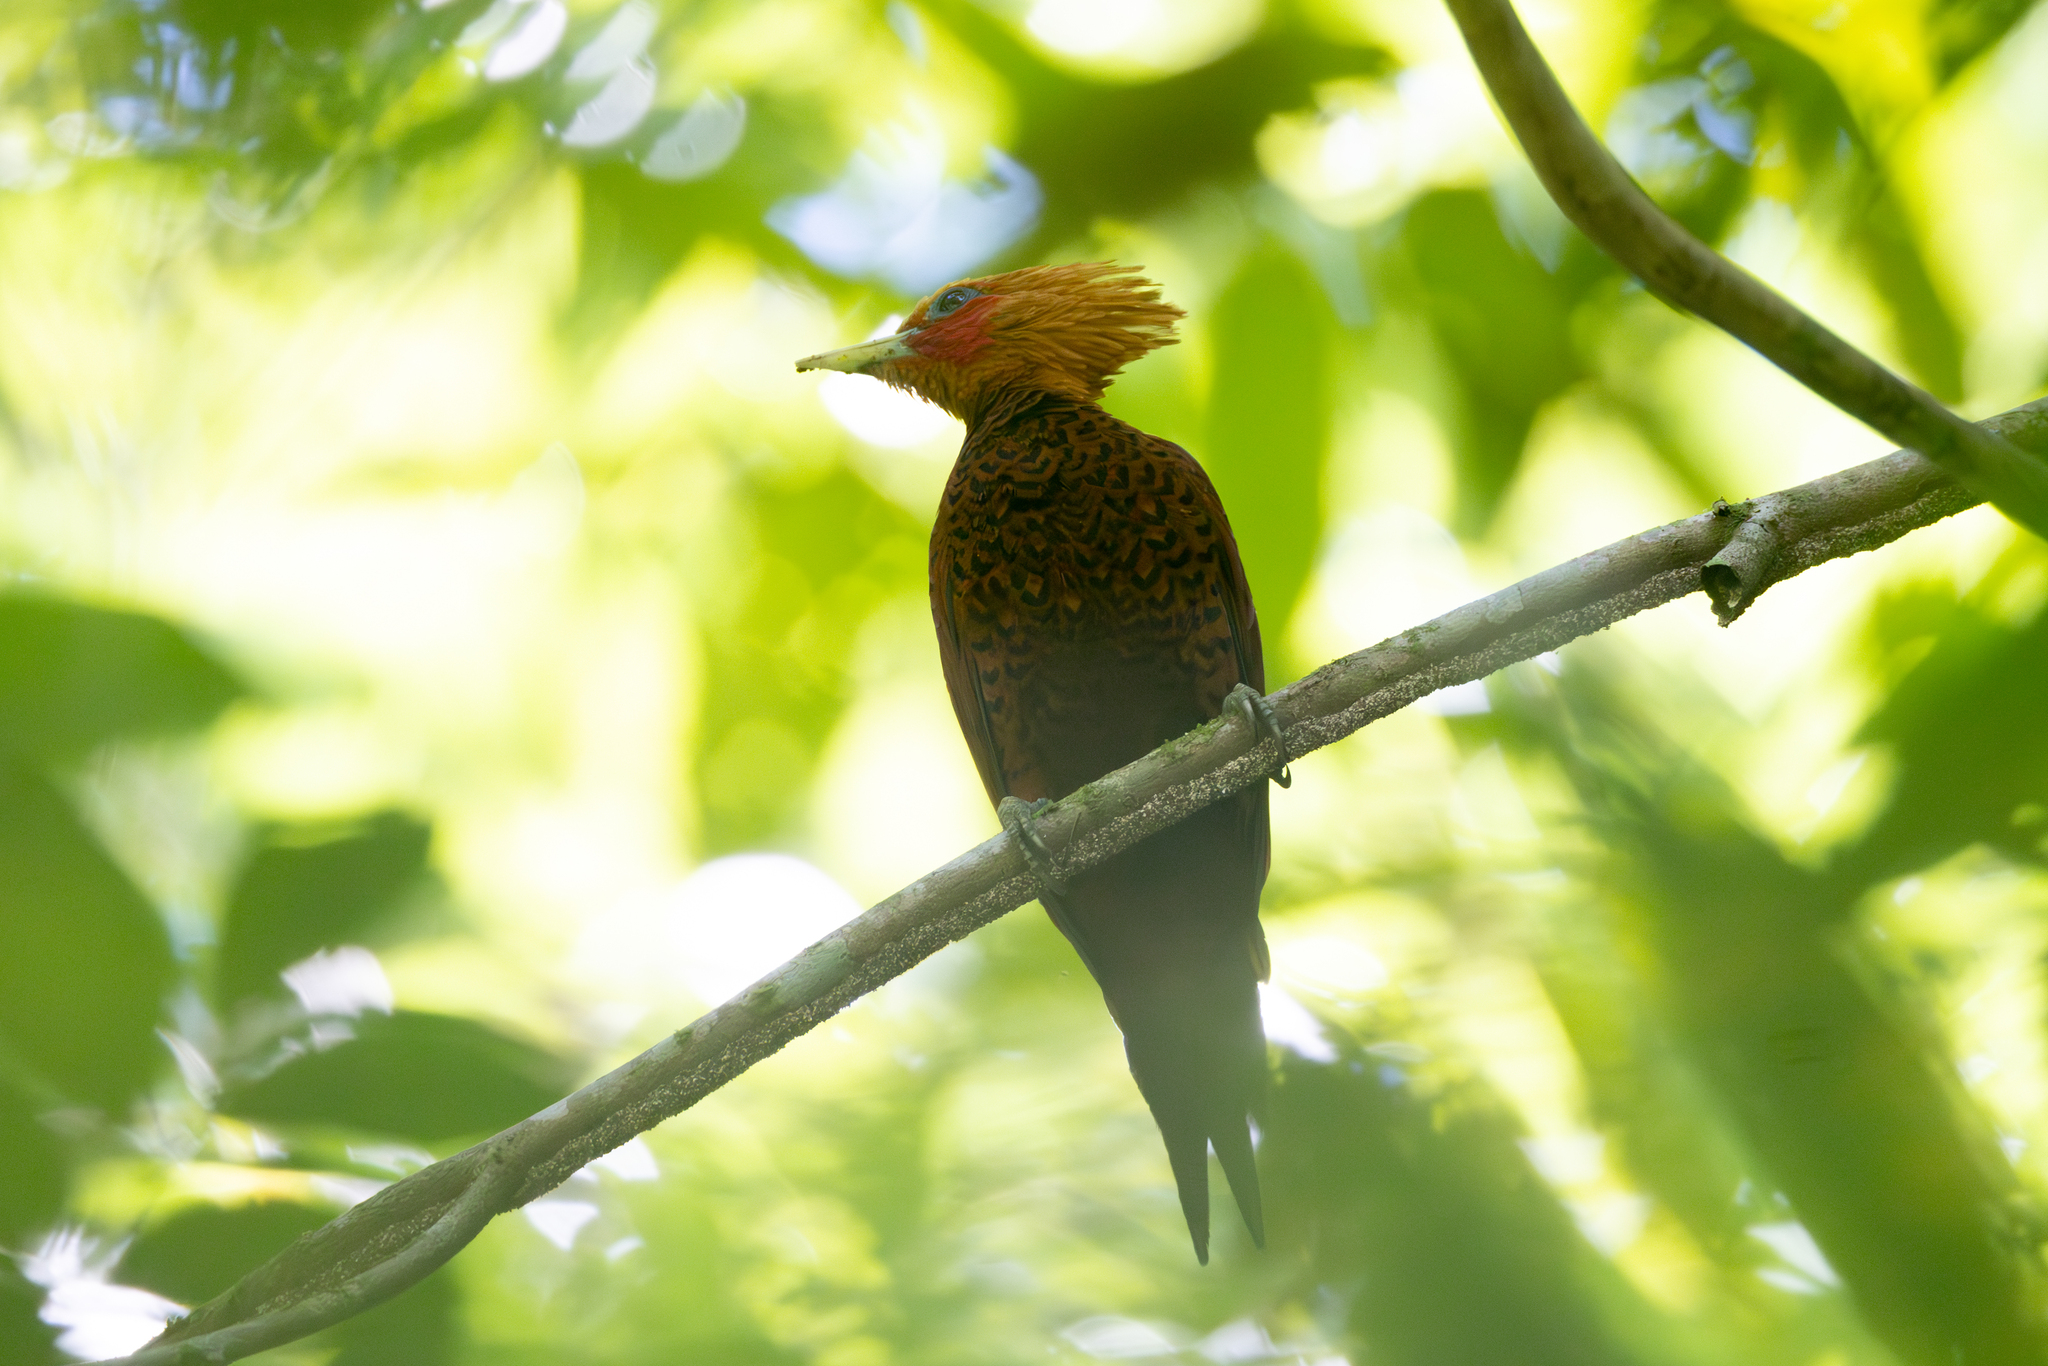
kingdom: Animalia
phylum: Chordata
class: Aves
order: Piciformes
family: Picidae
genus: Celeus
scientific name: Celeus castaneus
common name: Chestnut-colored woodpecker
